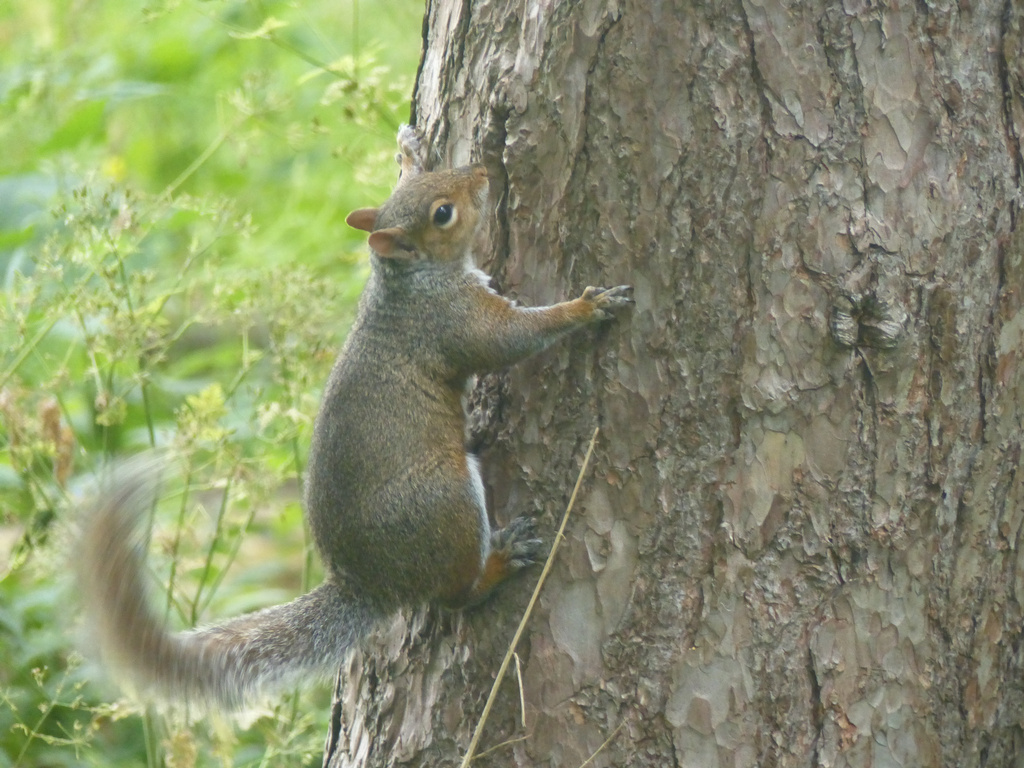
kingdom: Animalia
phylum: Chordata
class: Mammalia
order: Rodentia
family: Sciuridae
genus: Sciurus
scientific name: Sciurus carolinensis
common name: Eastern gray squirrel
